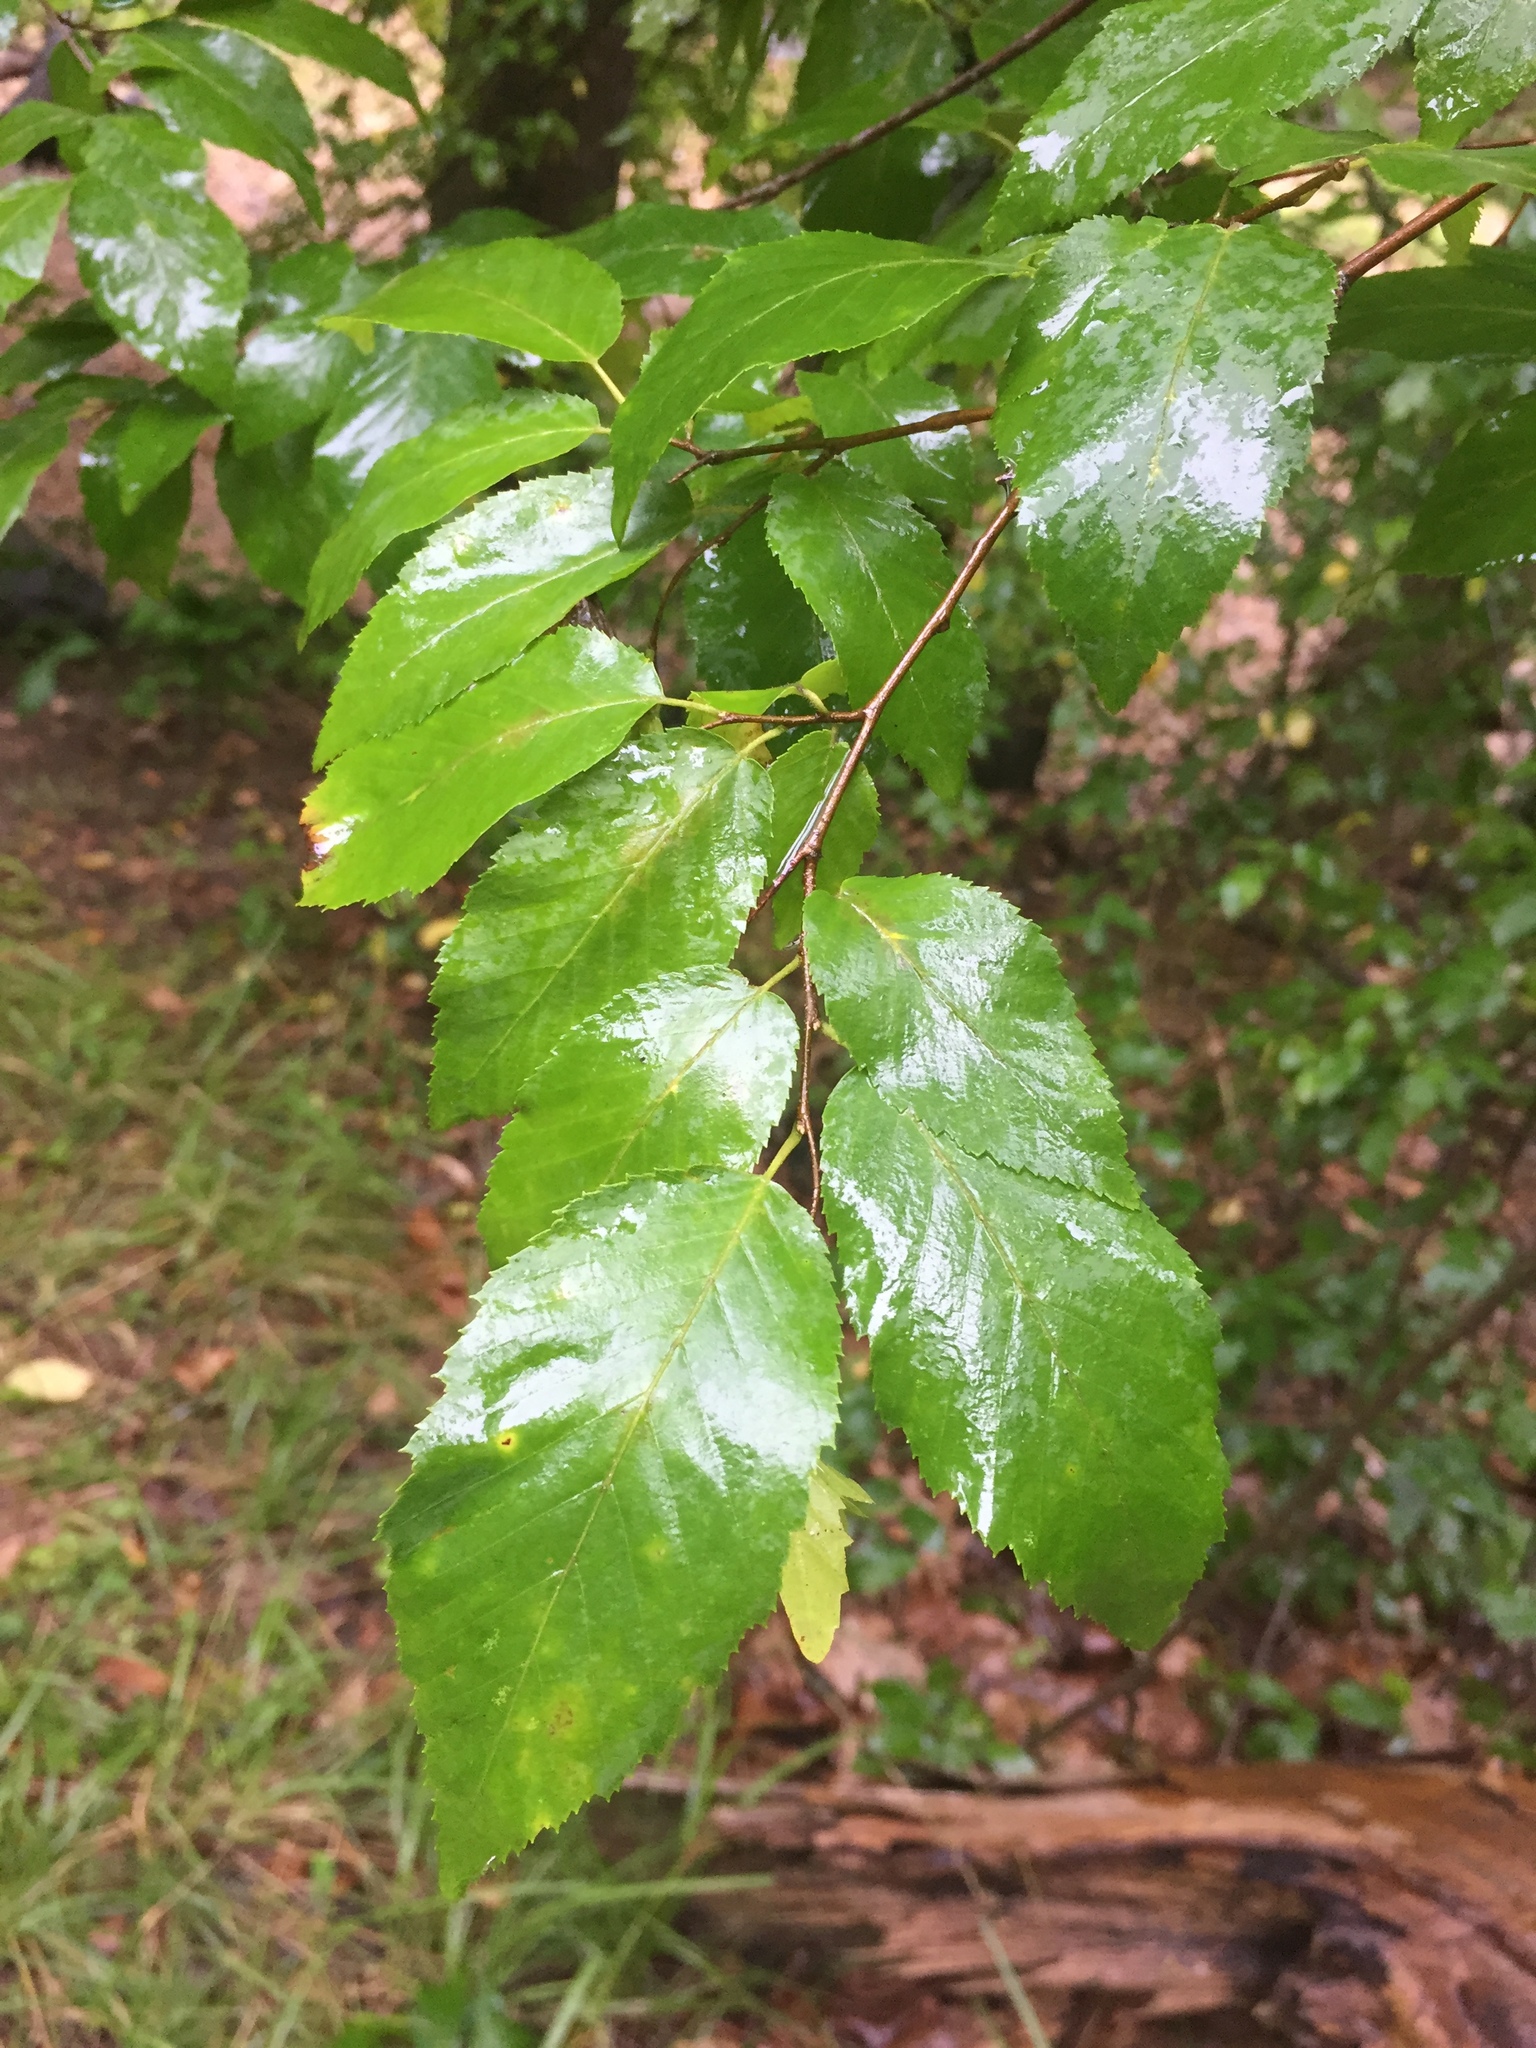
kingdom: Plantae
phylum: Tracheophyta
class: Magnoliopsida
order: Fagales
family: Betulaceae
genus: Carpinus
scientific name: Carpinus caroliniana
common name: American hornbeam
